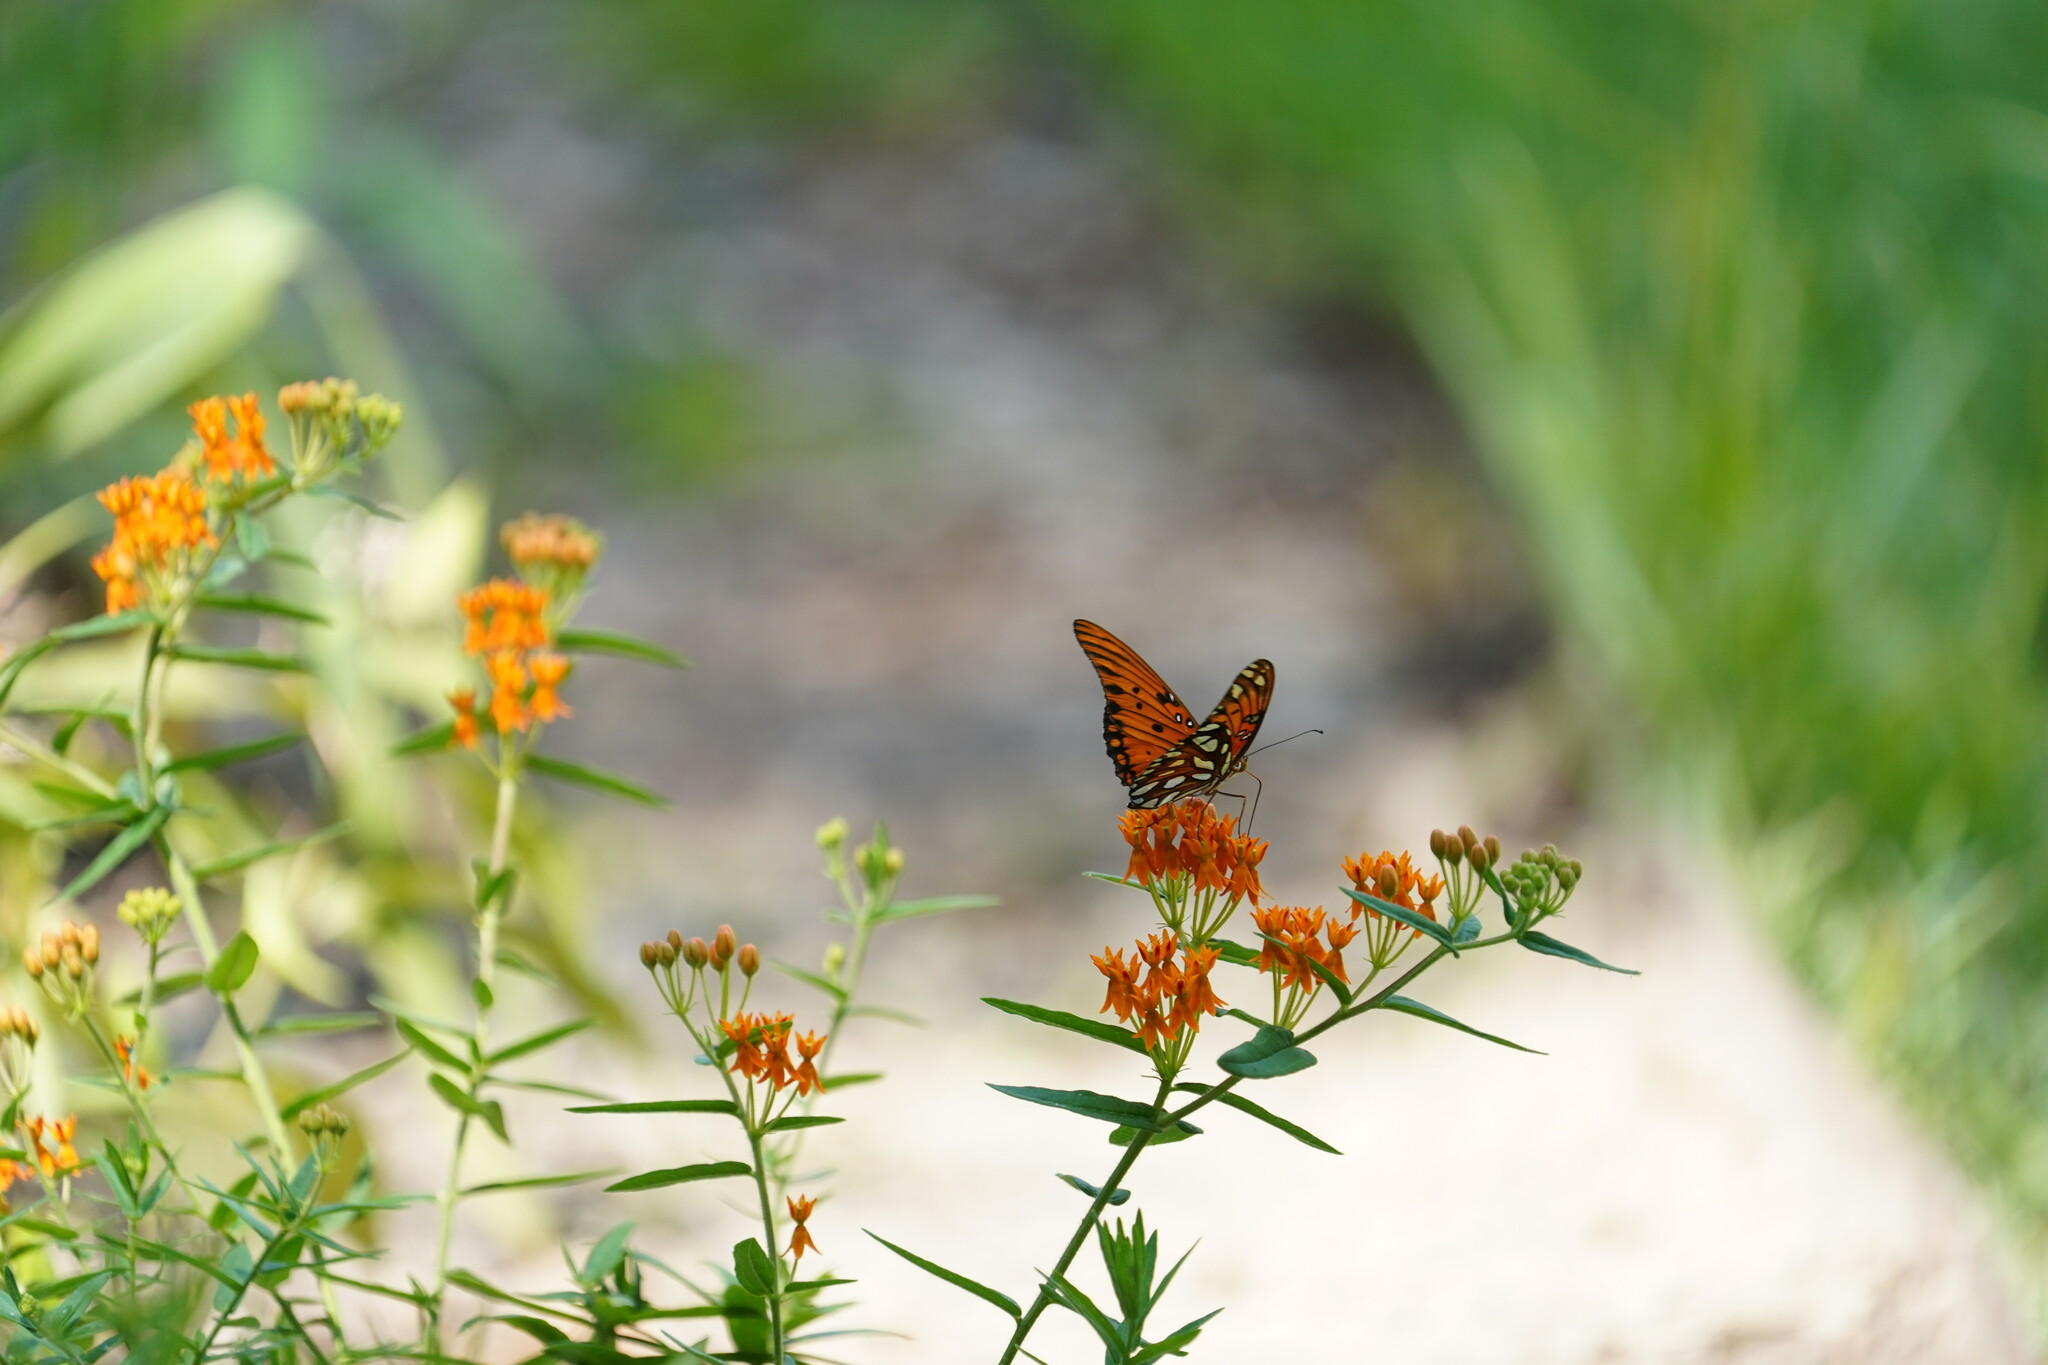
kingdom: Animalia
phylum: Arthropoda
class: Insecta
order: Lepidoptera
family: Nymphalidae
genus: Dione
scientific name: Dione vanillae
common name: Gulf fritillary
